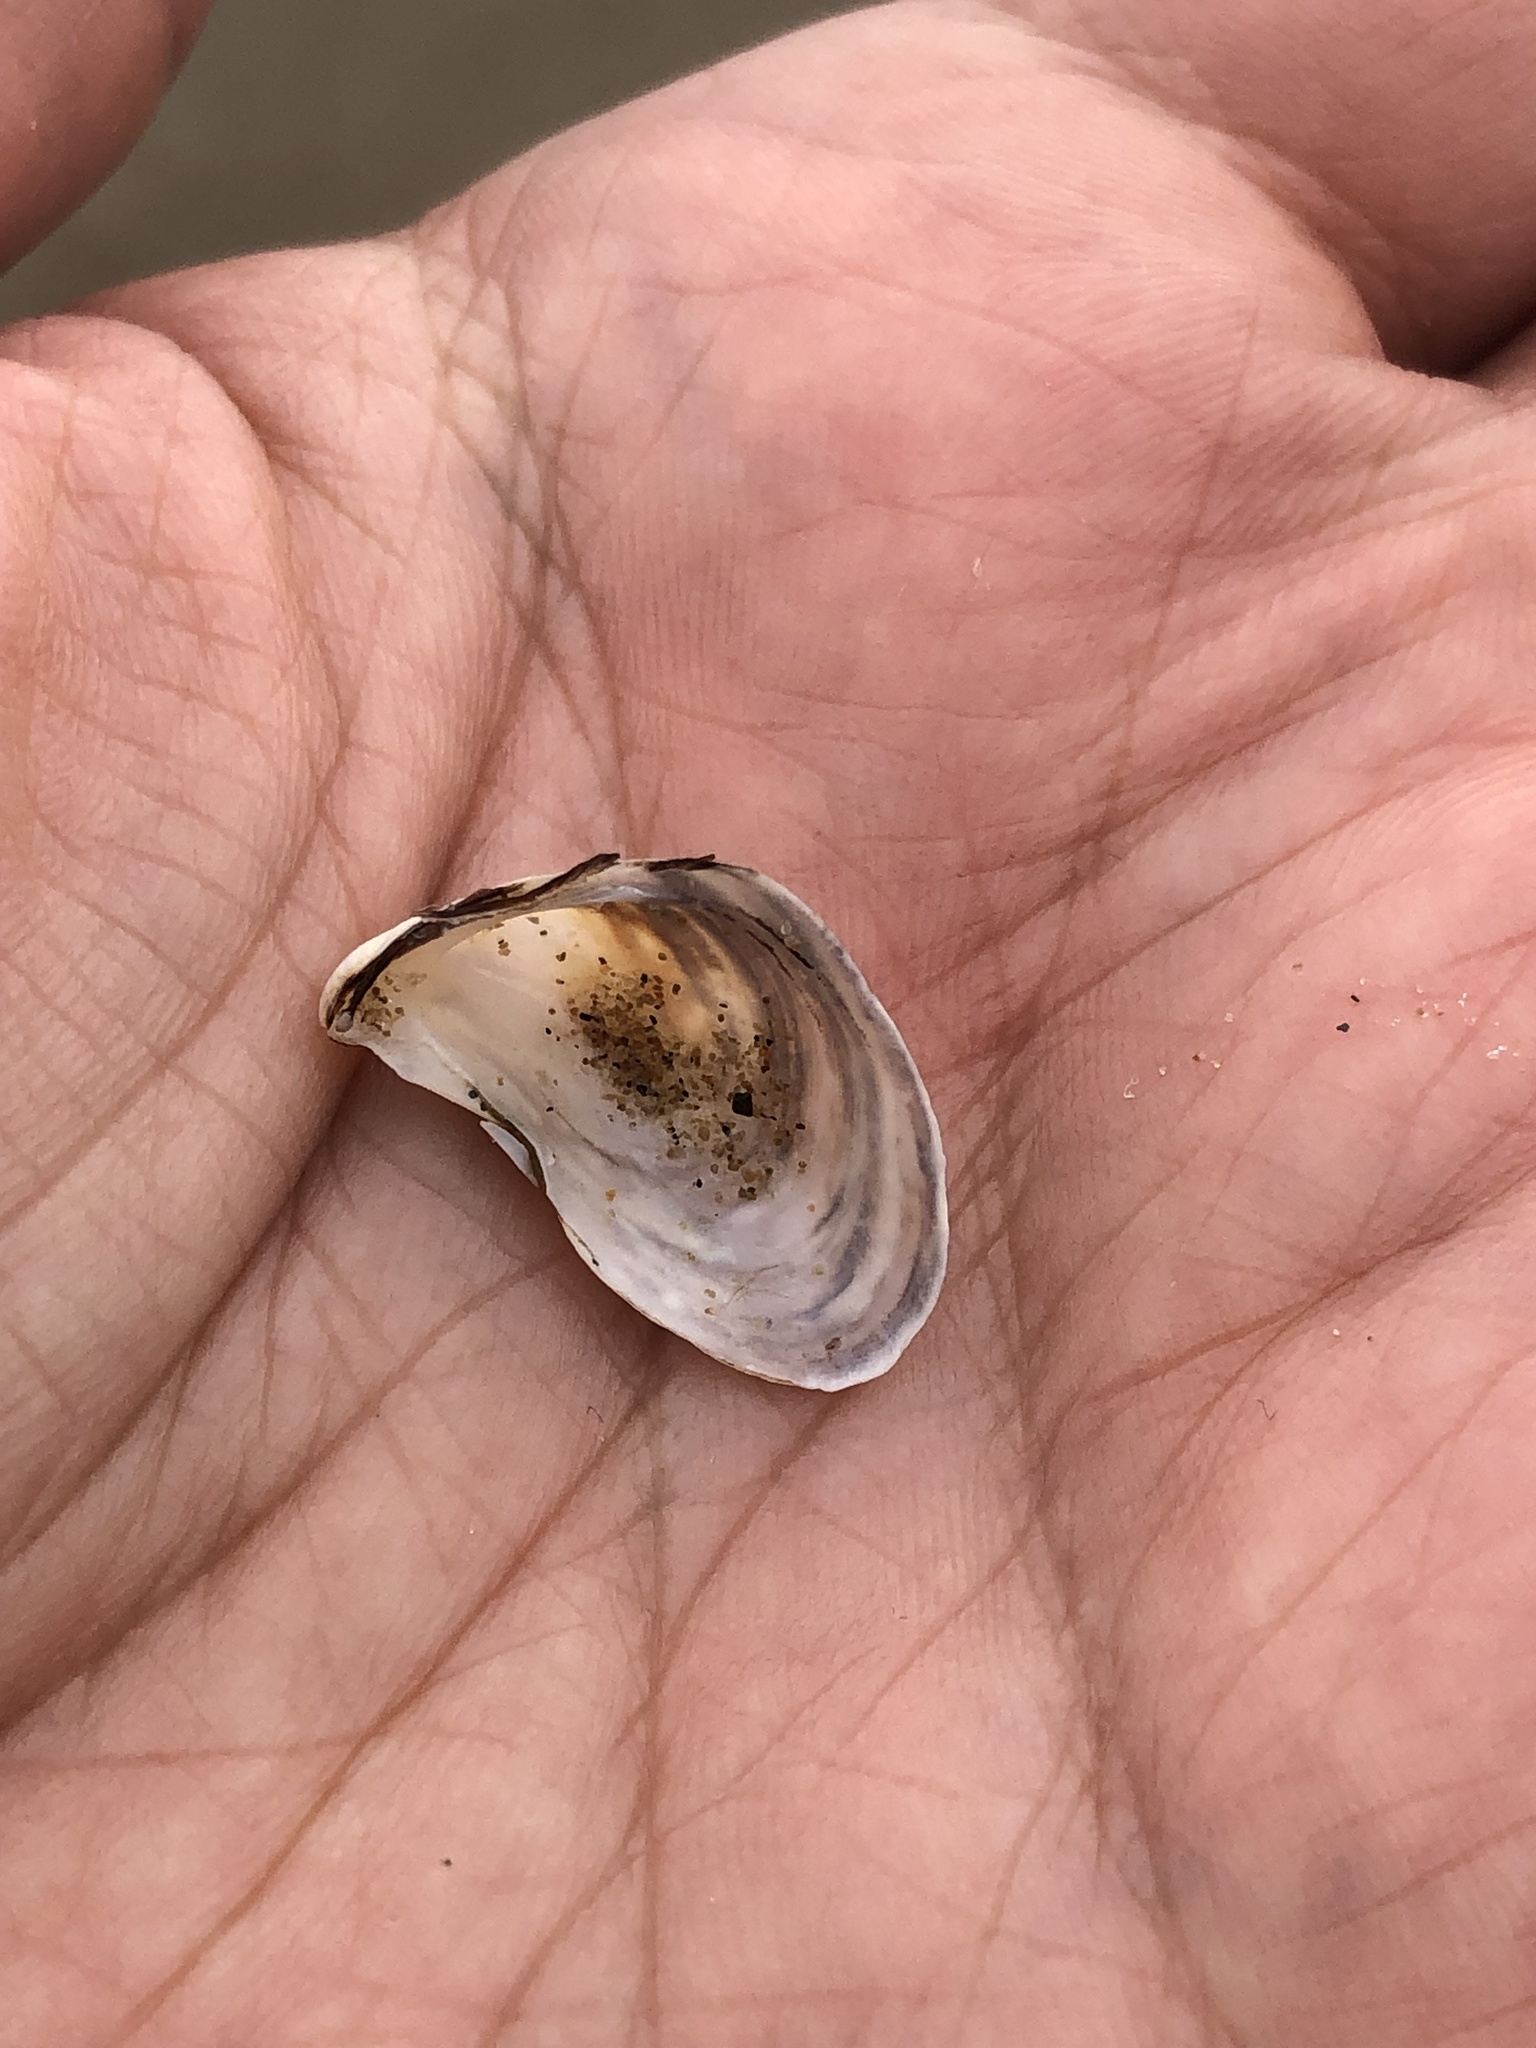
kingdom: Animalia
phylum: Mollusca
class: Bivalvia
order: Myida
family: Dreissenidae
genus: Dreissena
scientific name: Dreissena bugensis
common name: Quagga mussel
